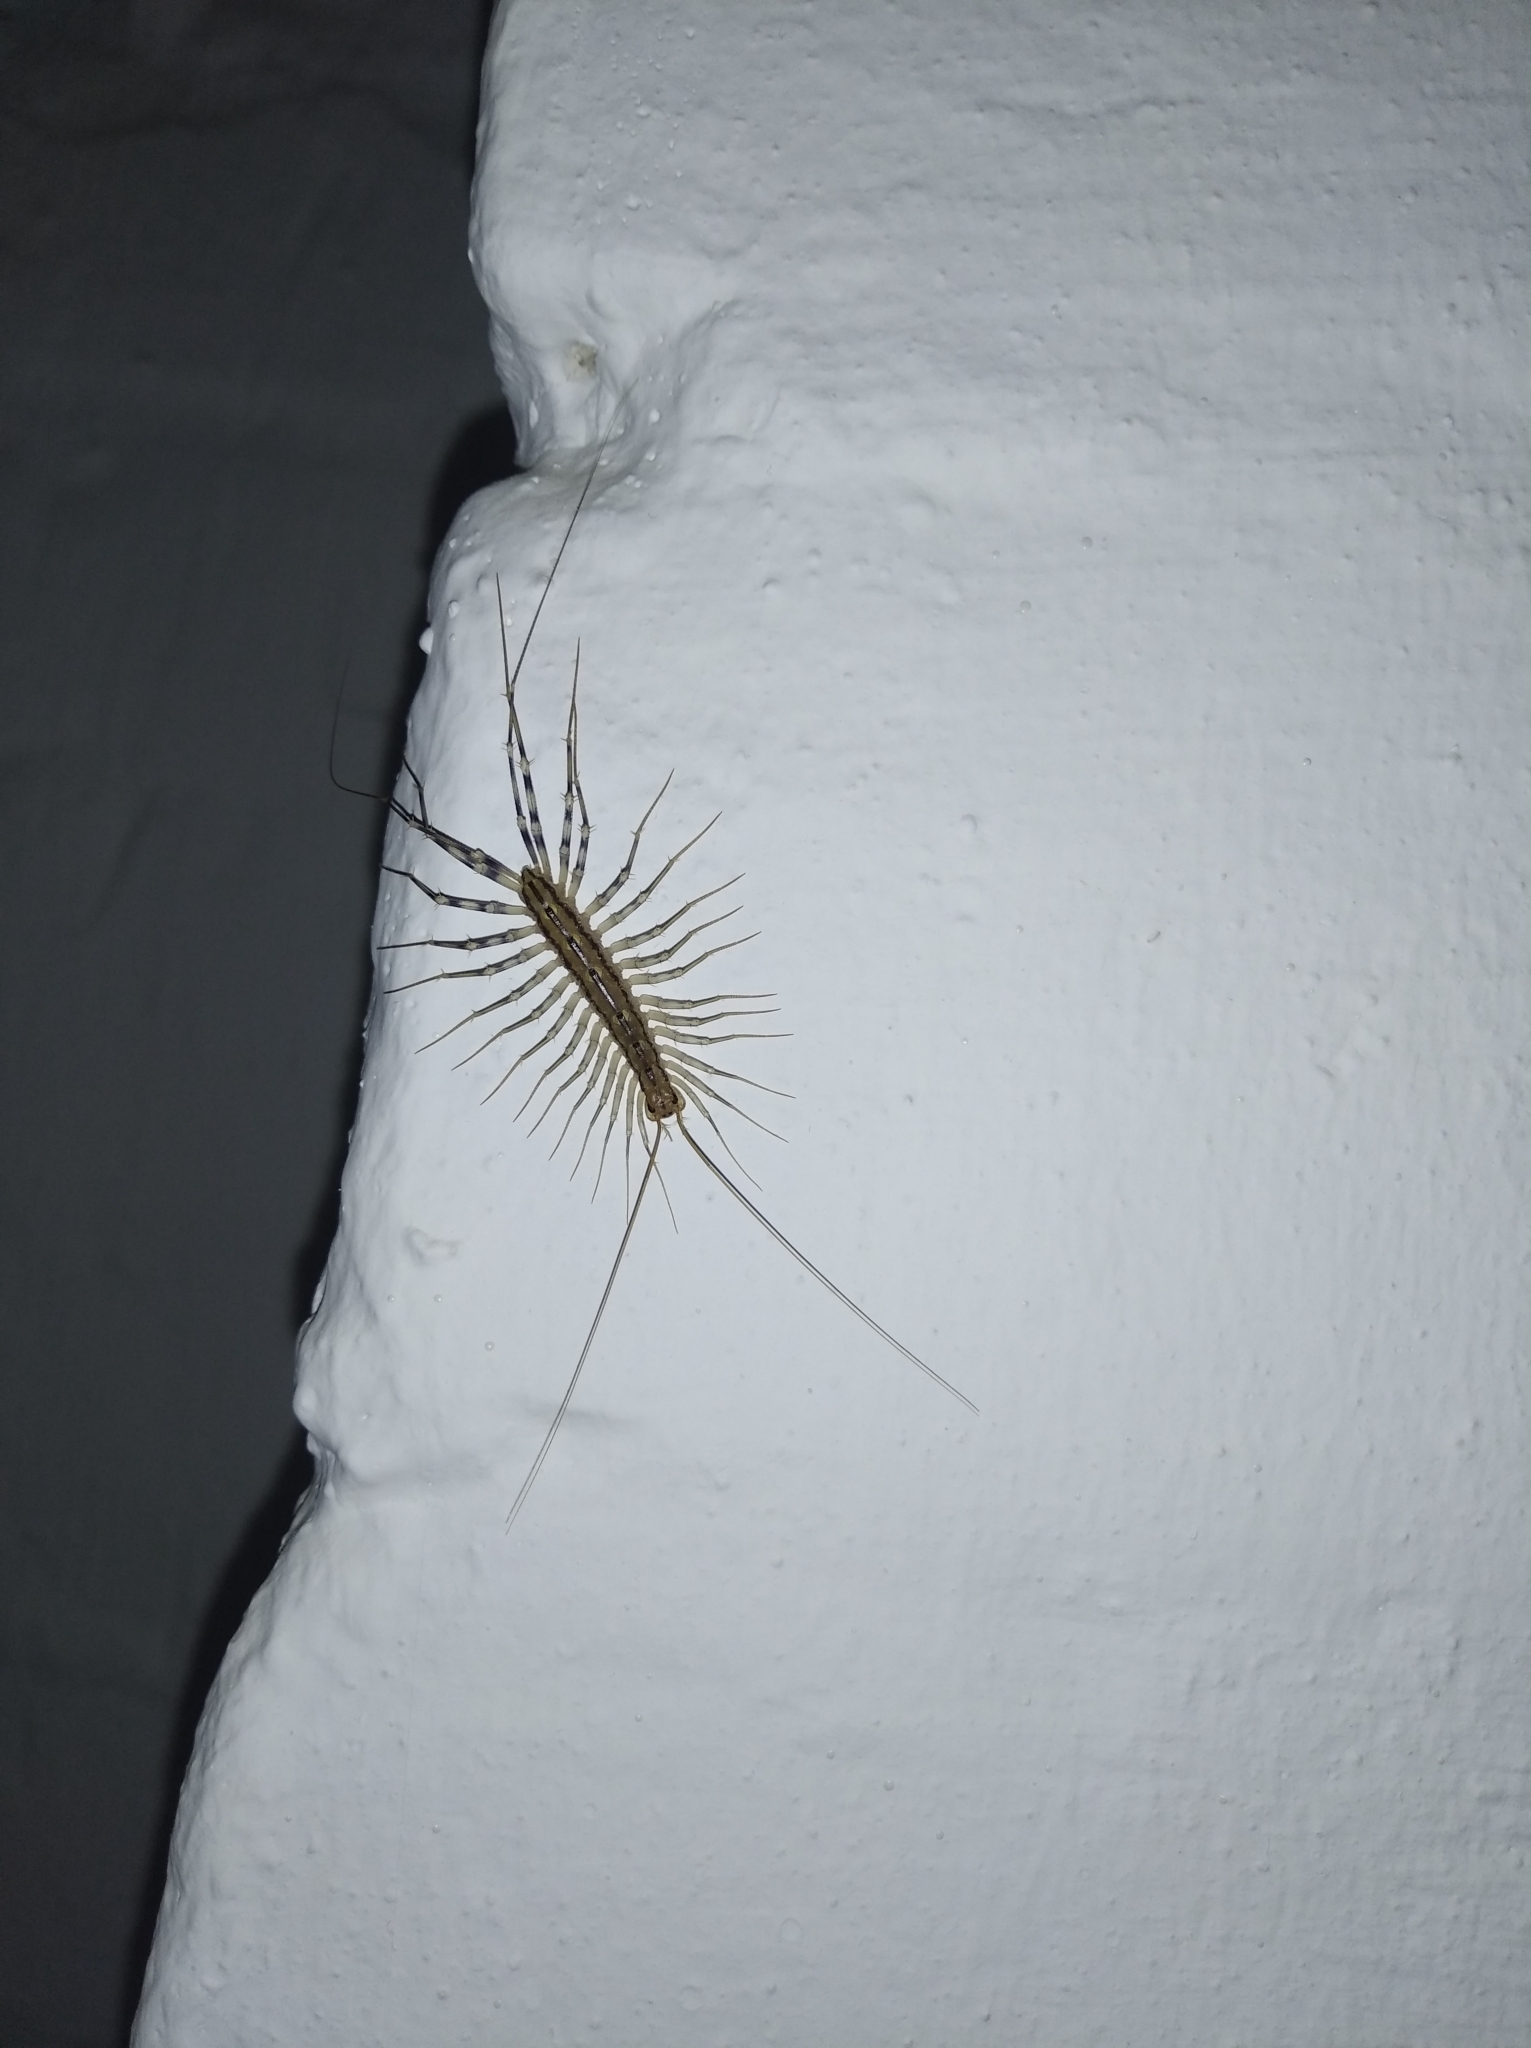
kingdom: Animalia
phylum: Arthropoda
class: Chilopoda
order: Scutigeromorpha
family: Scutigeridae
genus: Scutigera
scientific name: Scutigera coleoptrata
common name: House centipede
